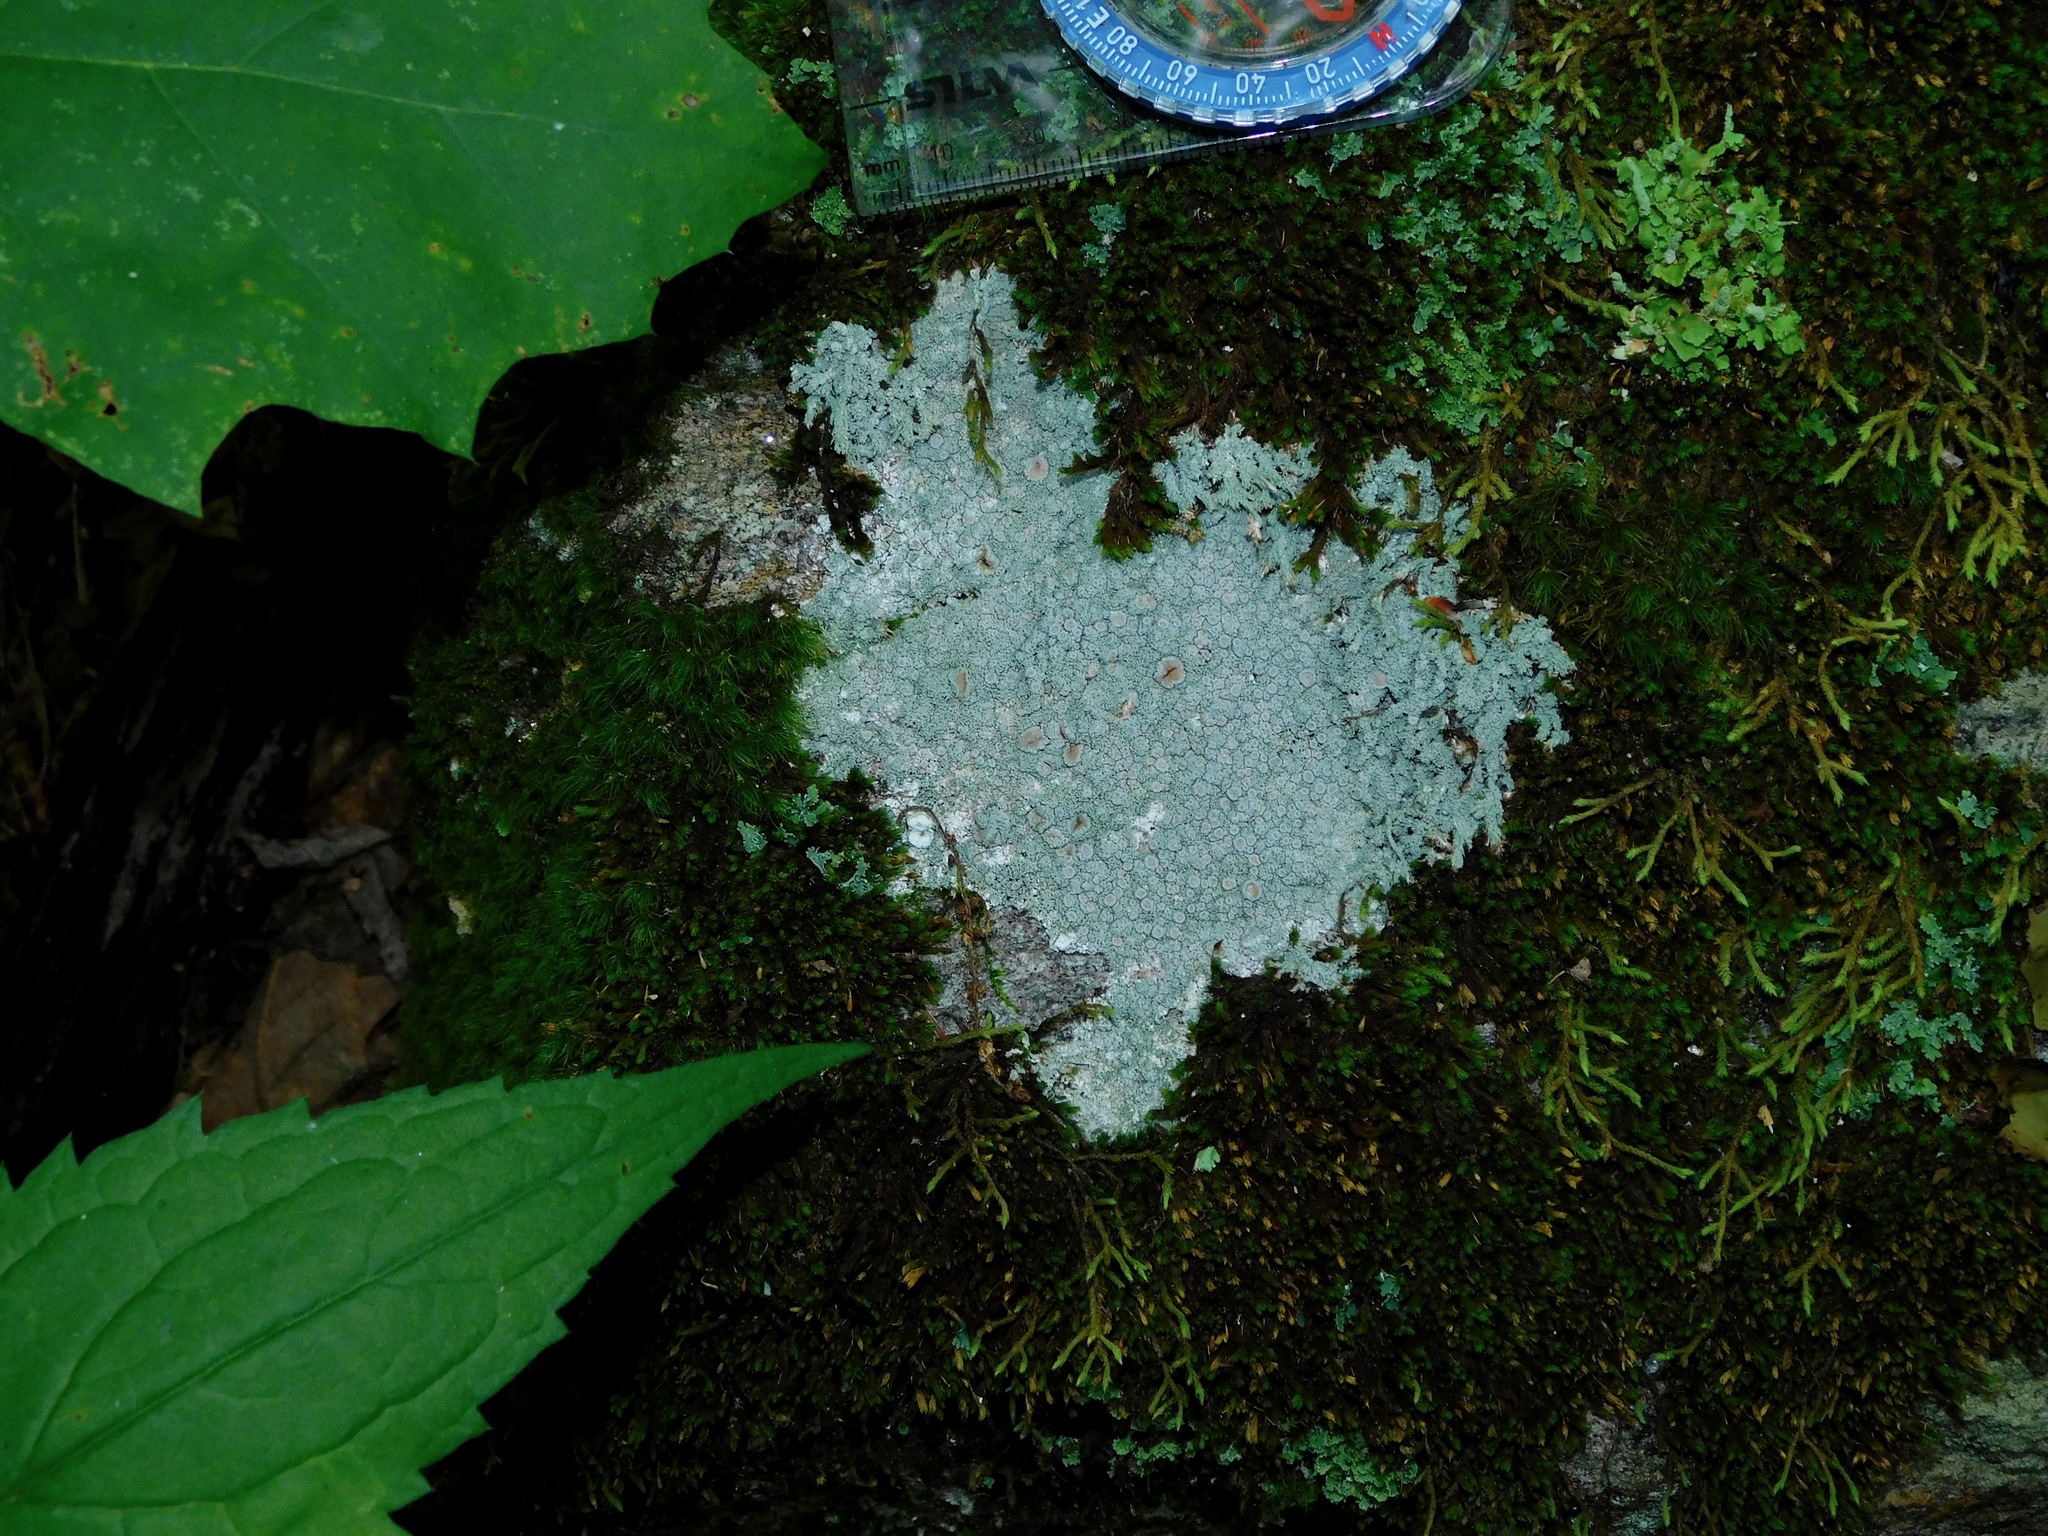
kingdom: Fungi
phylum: Ascomycota
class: Lecanoromycetes
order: Pertusariales
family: Ochrolechiaceae
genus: Ochrolechia
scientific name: Ochrolechia yasudae
